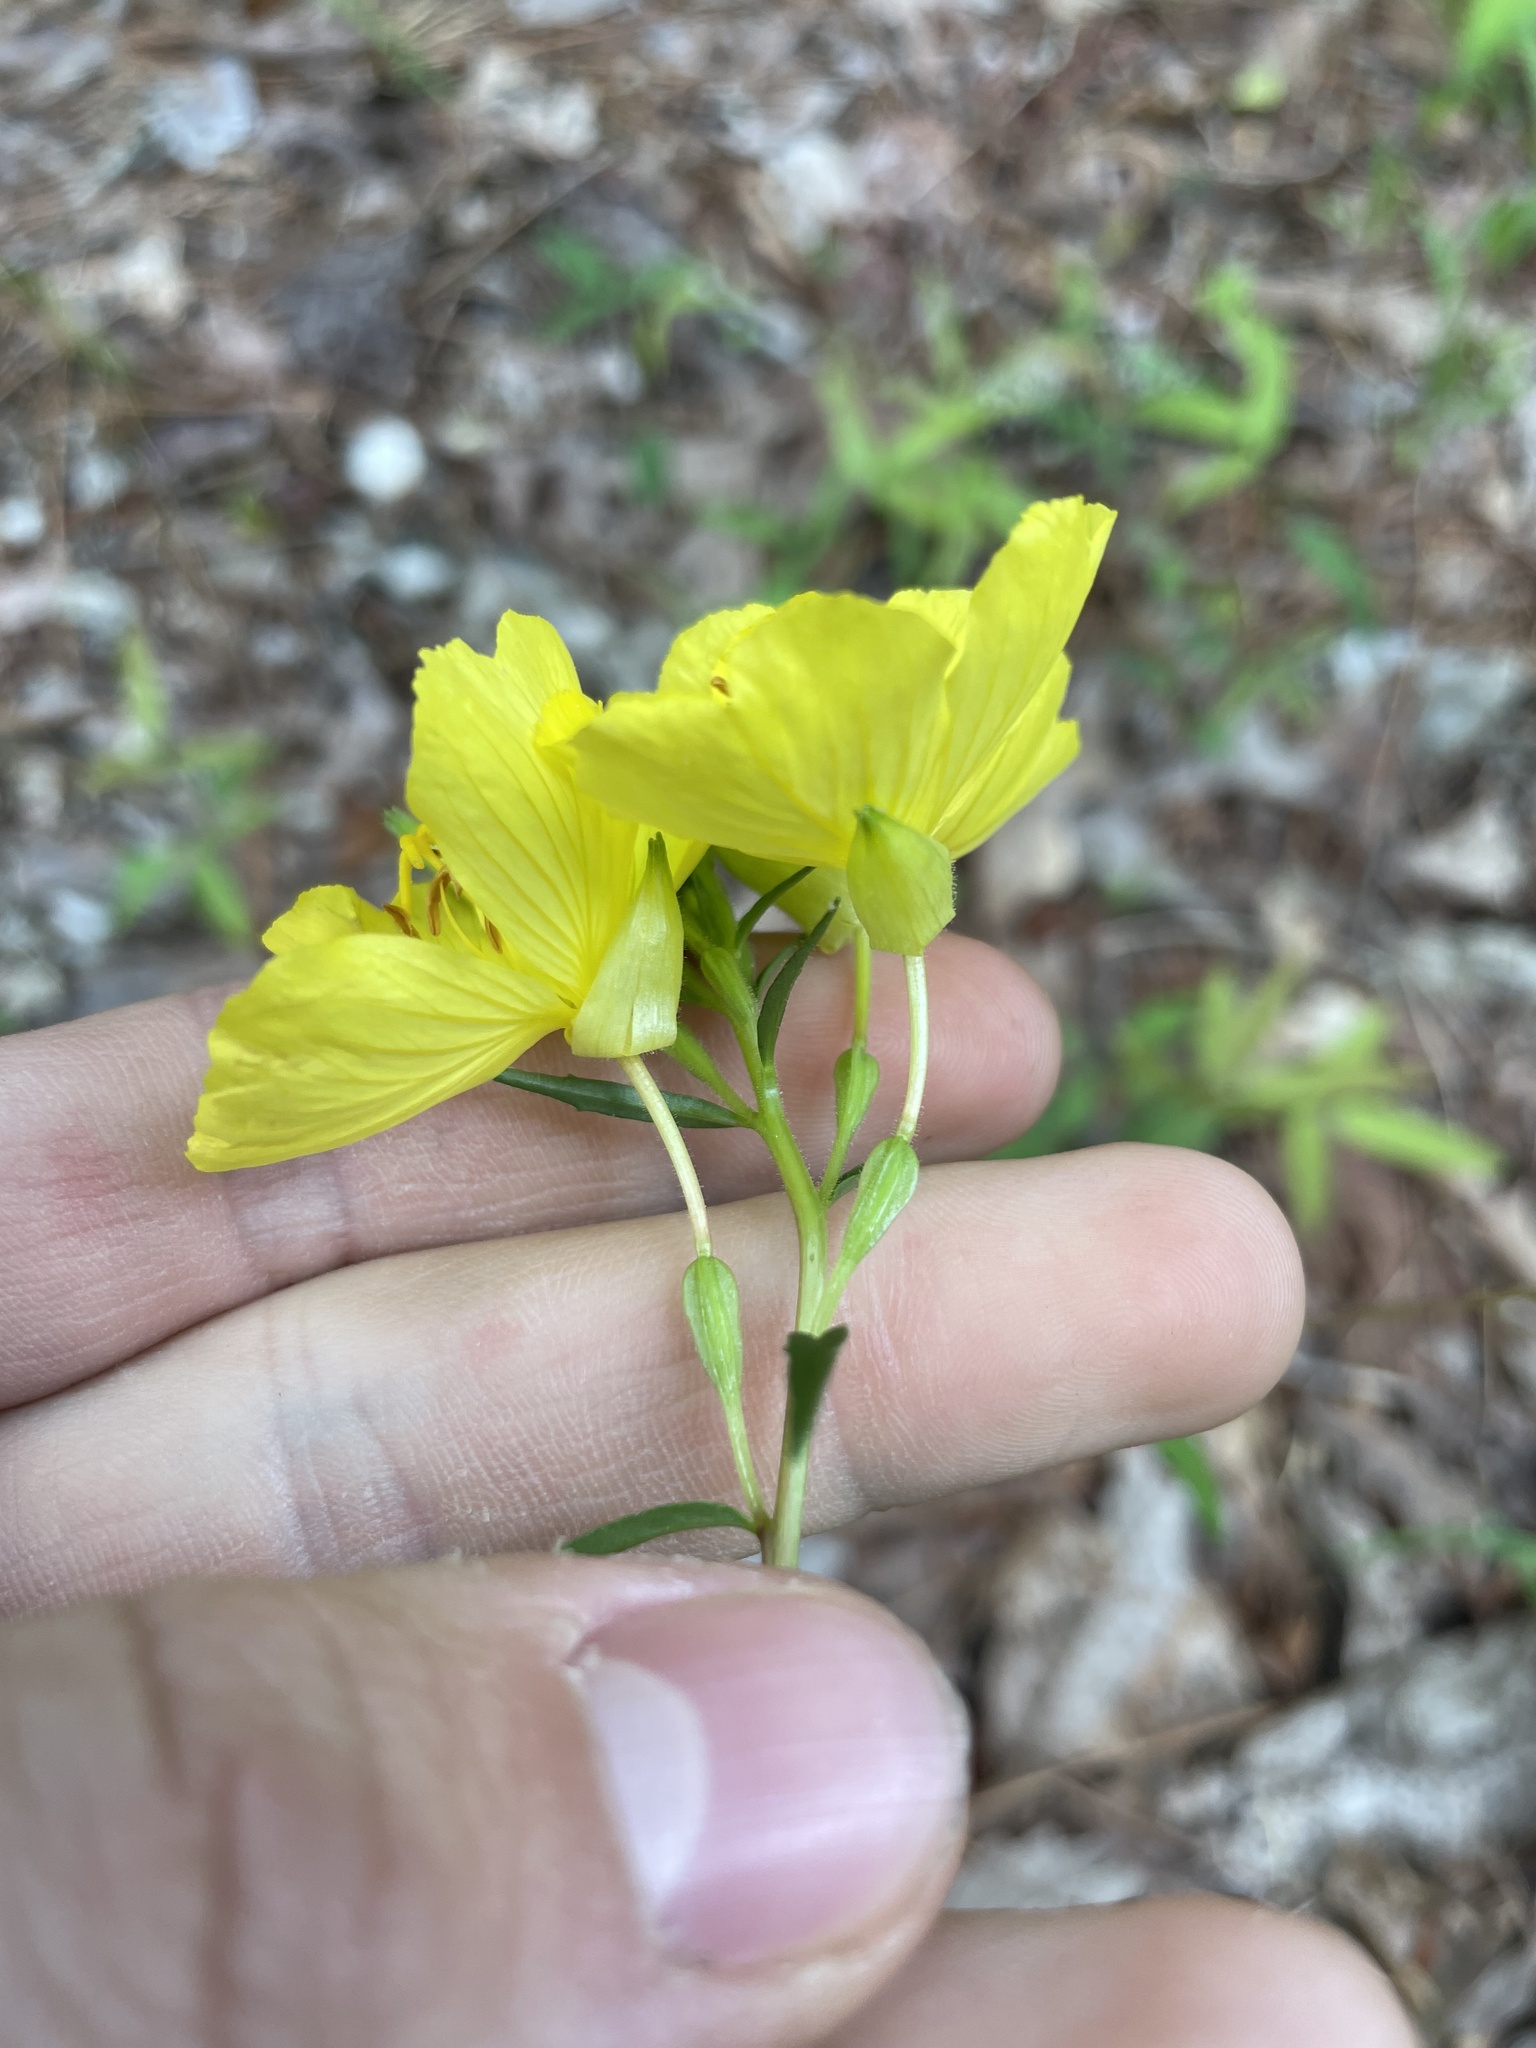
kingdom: Plantae
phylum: Tracheophyta
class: Magnoliopsida
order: Myrtales
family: Onagraceae
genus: Oenothera
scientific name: Oenothera fruticosa
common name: Southern sundrops
